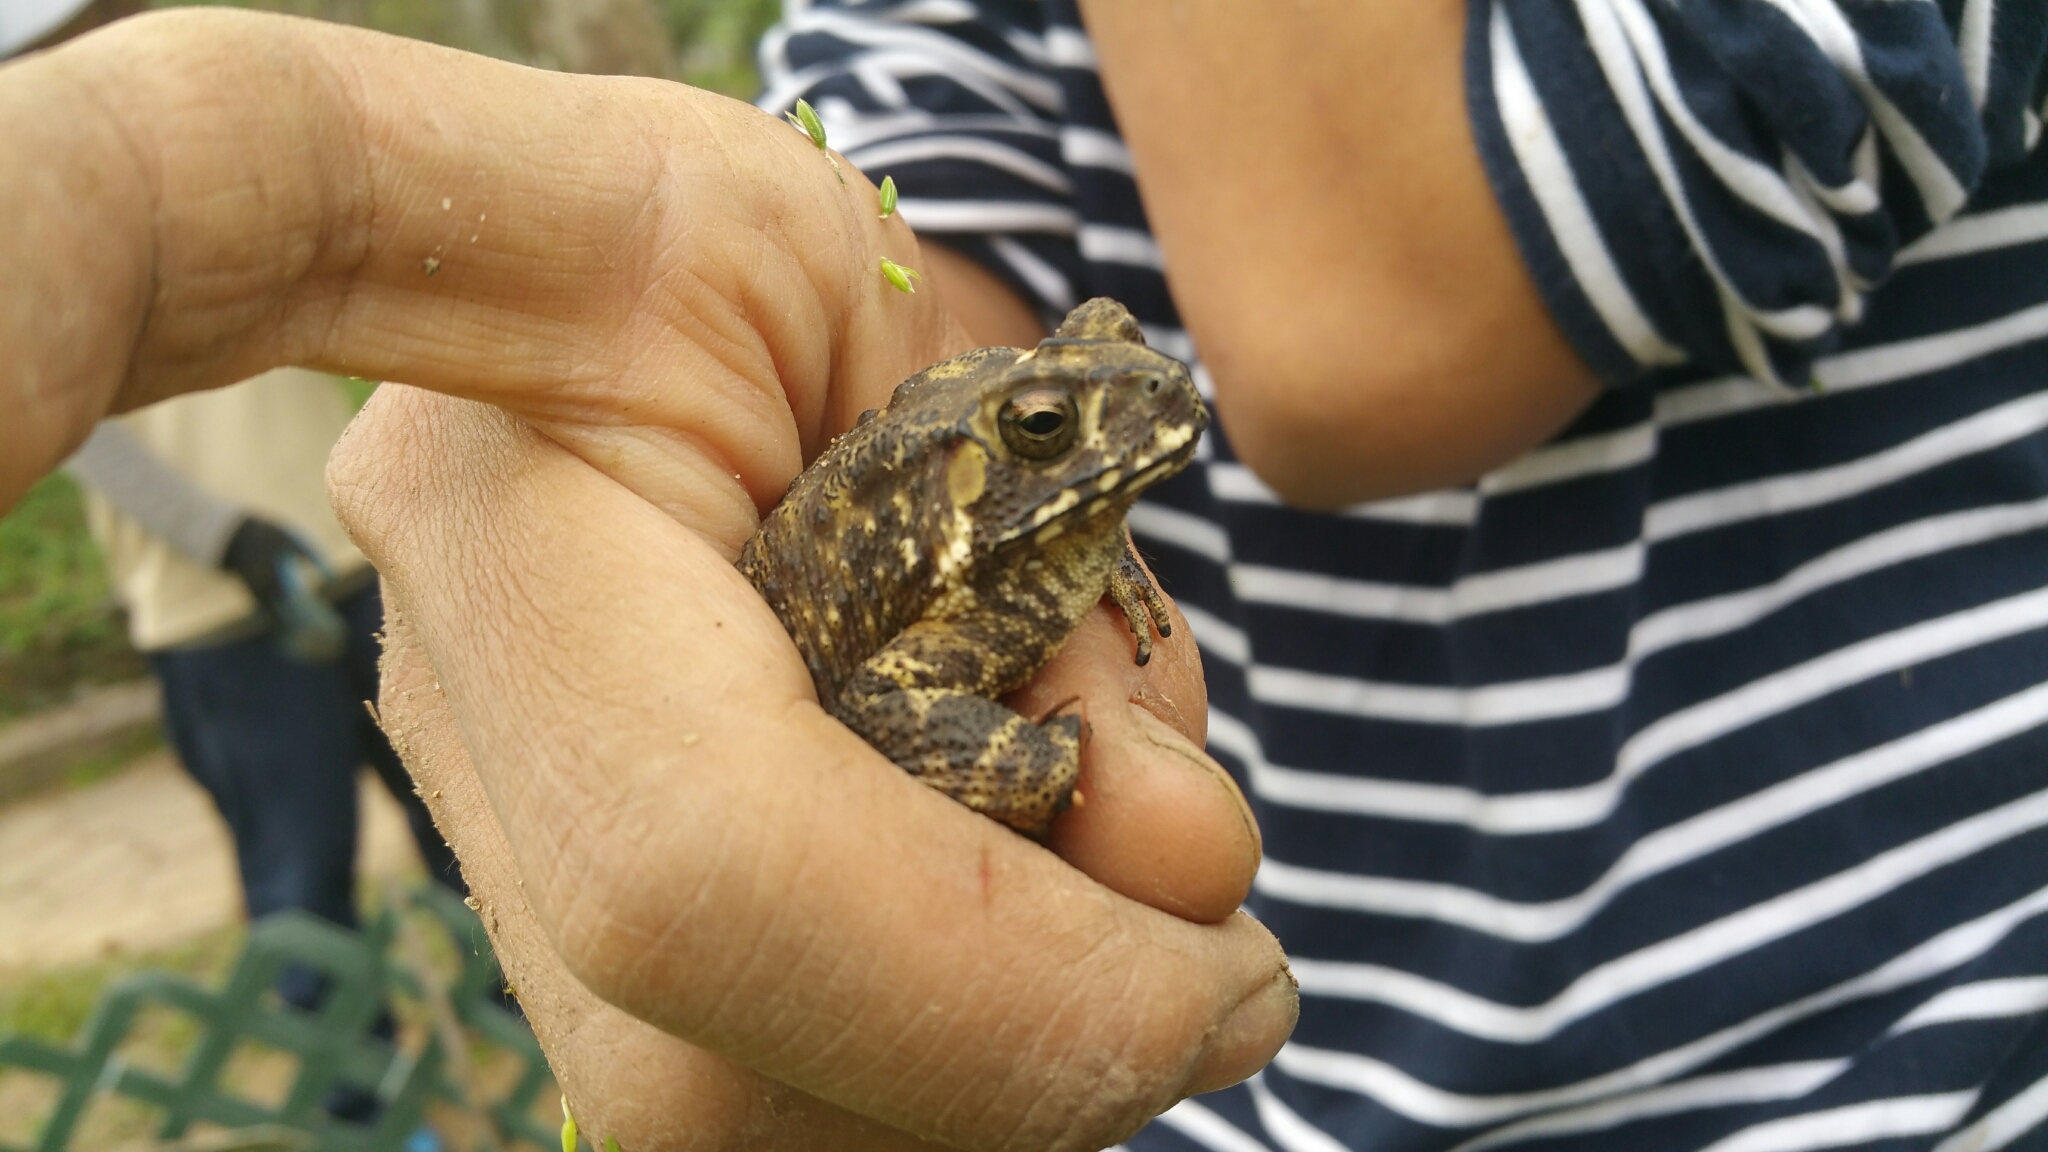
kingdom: Animalia
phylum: Chordata
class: Amphibia
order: Anura
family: Bufonidae
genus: Duttaphrynus
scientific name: Duttaphrynus melanostictus
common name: Common sunda toad
